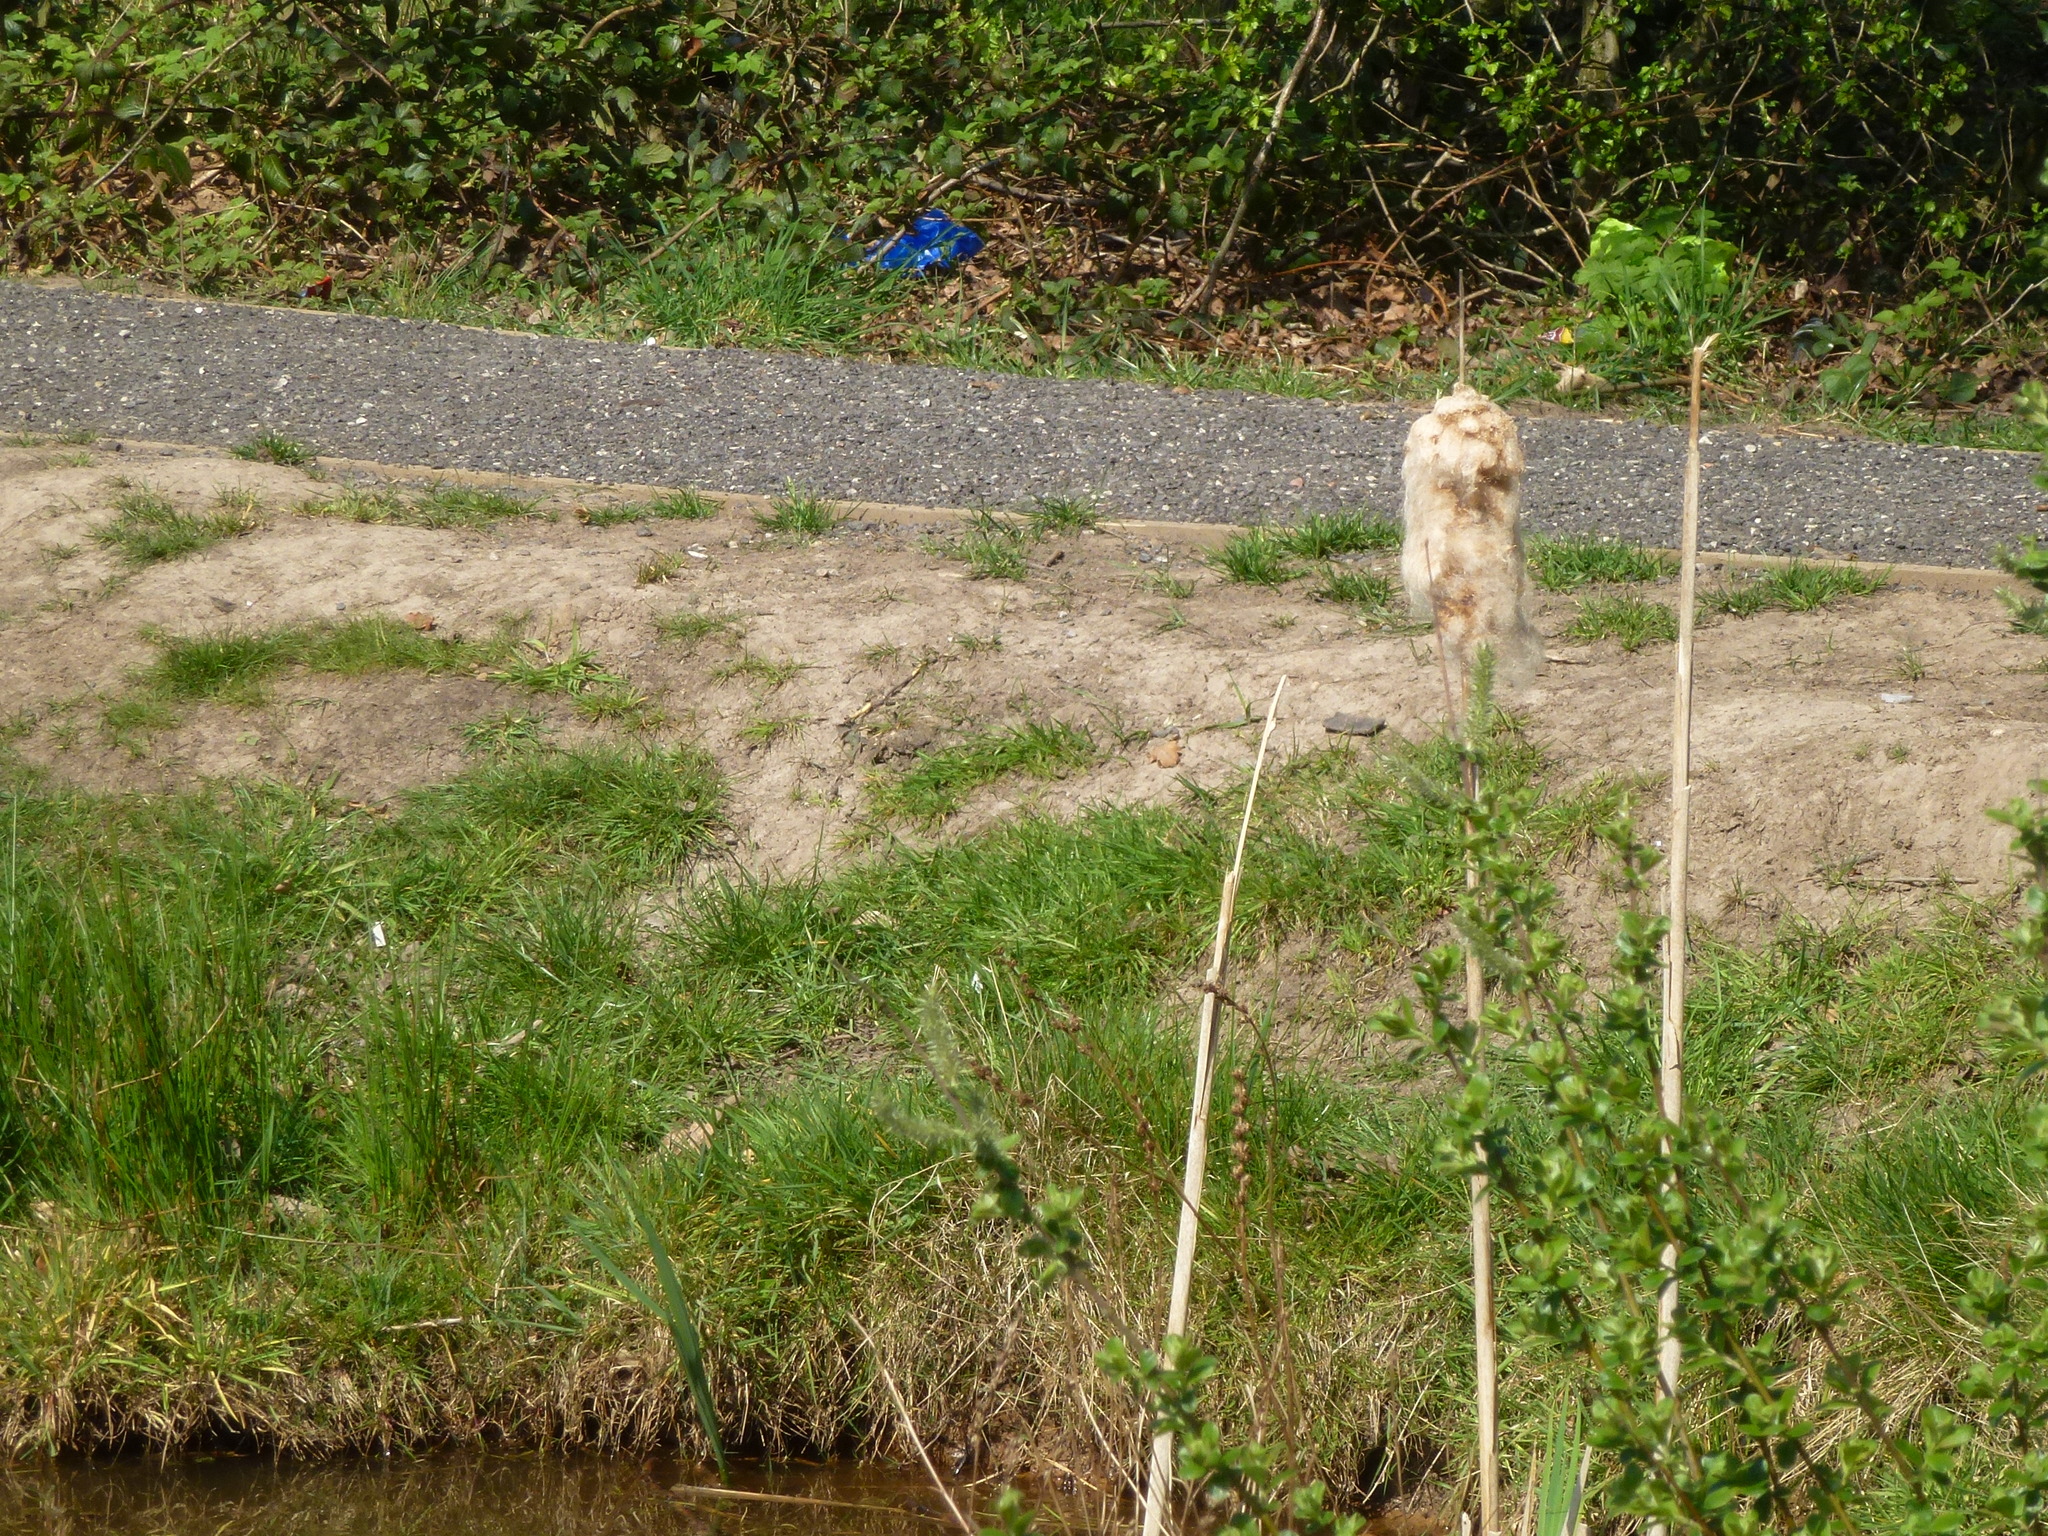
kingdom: Plantae
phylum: Tracheophyta
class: Liliopsida
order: Poales
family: Typhaceae
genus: Typha
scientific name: Typha latifolia
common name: Broadleaf cattail
